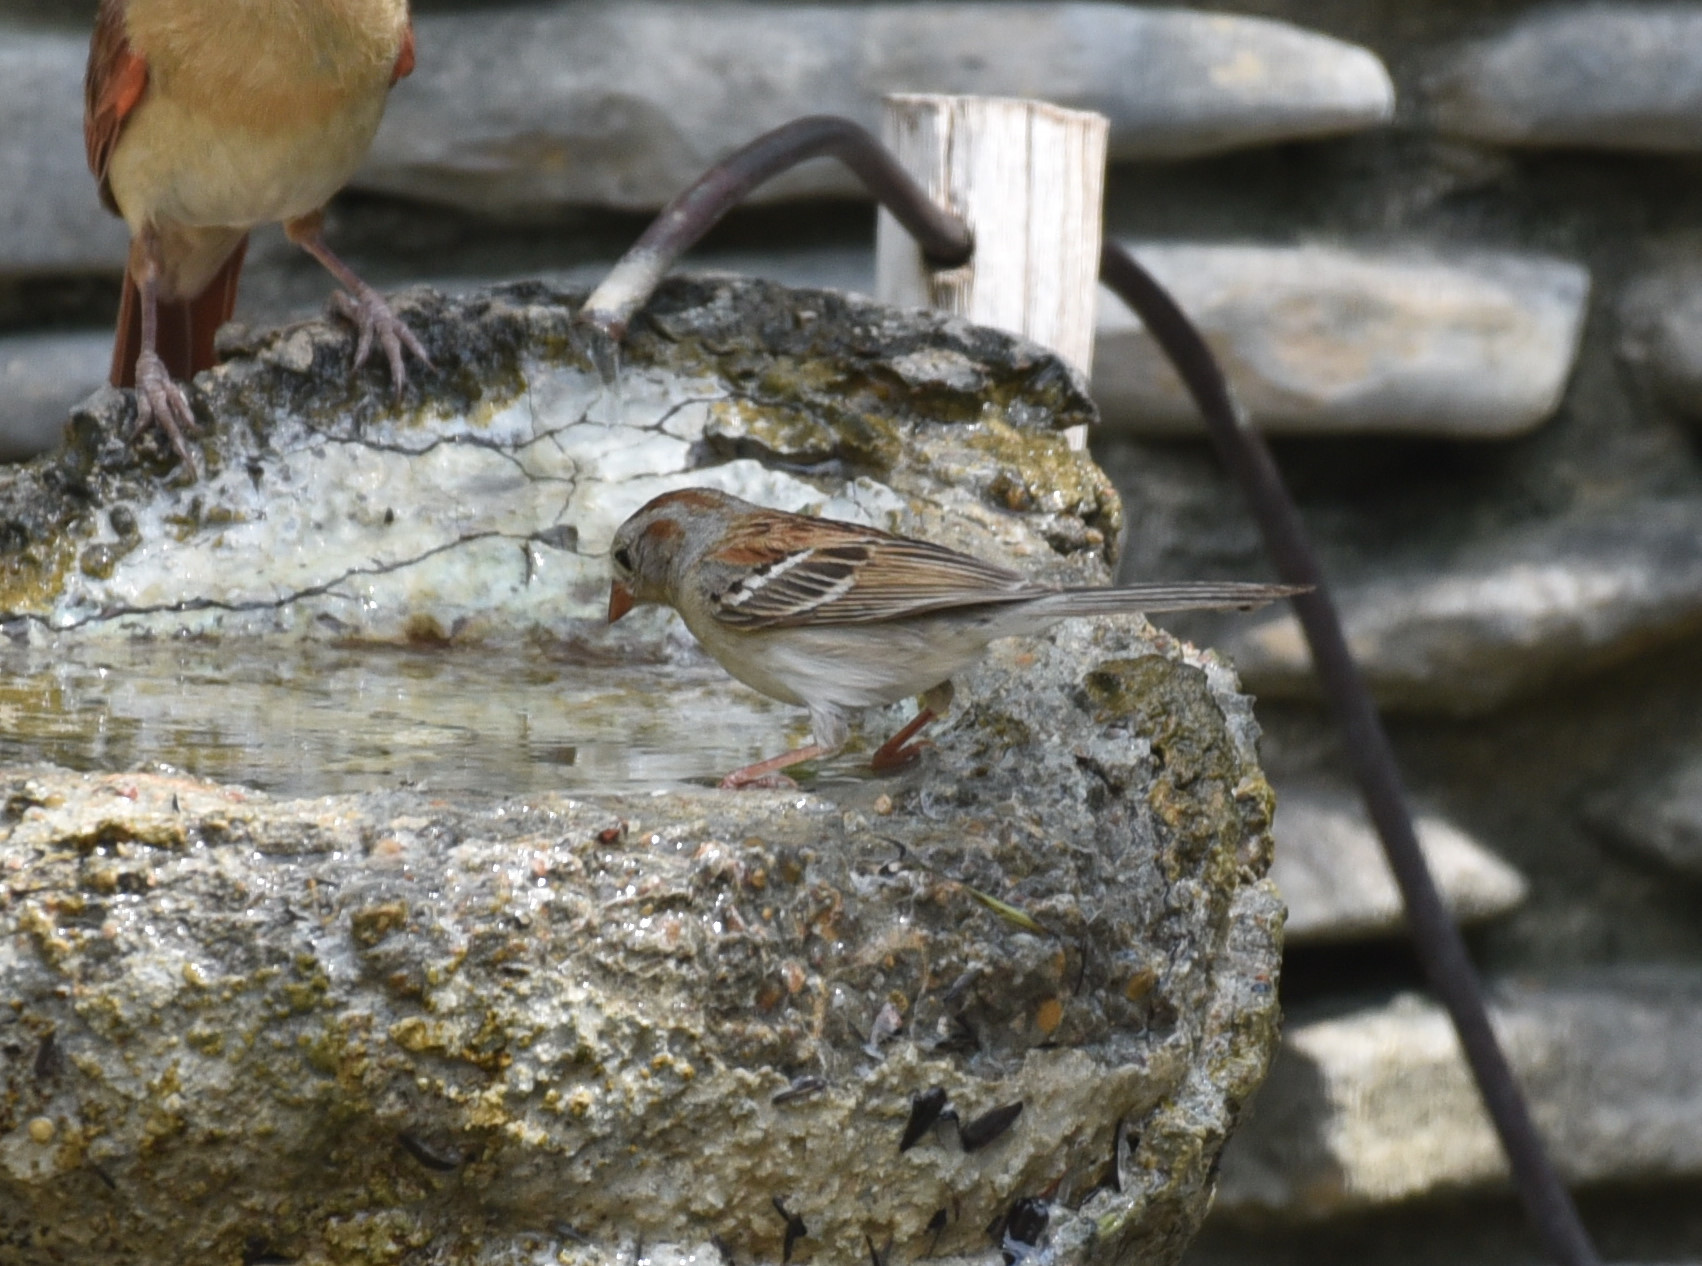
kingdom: Animalia
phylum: Chordata
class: Aves
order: Passeriformes
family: Passerellidae
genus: Spizella
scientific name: Spizella pusilla
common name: Field sparrow
